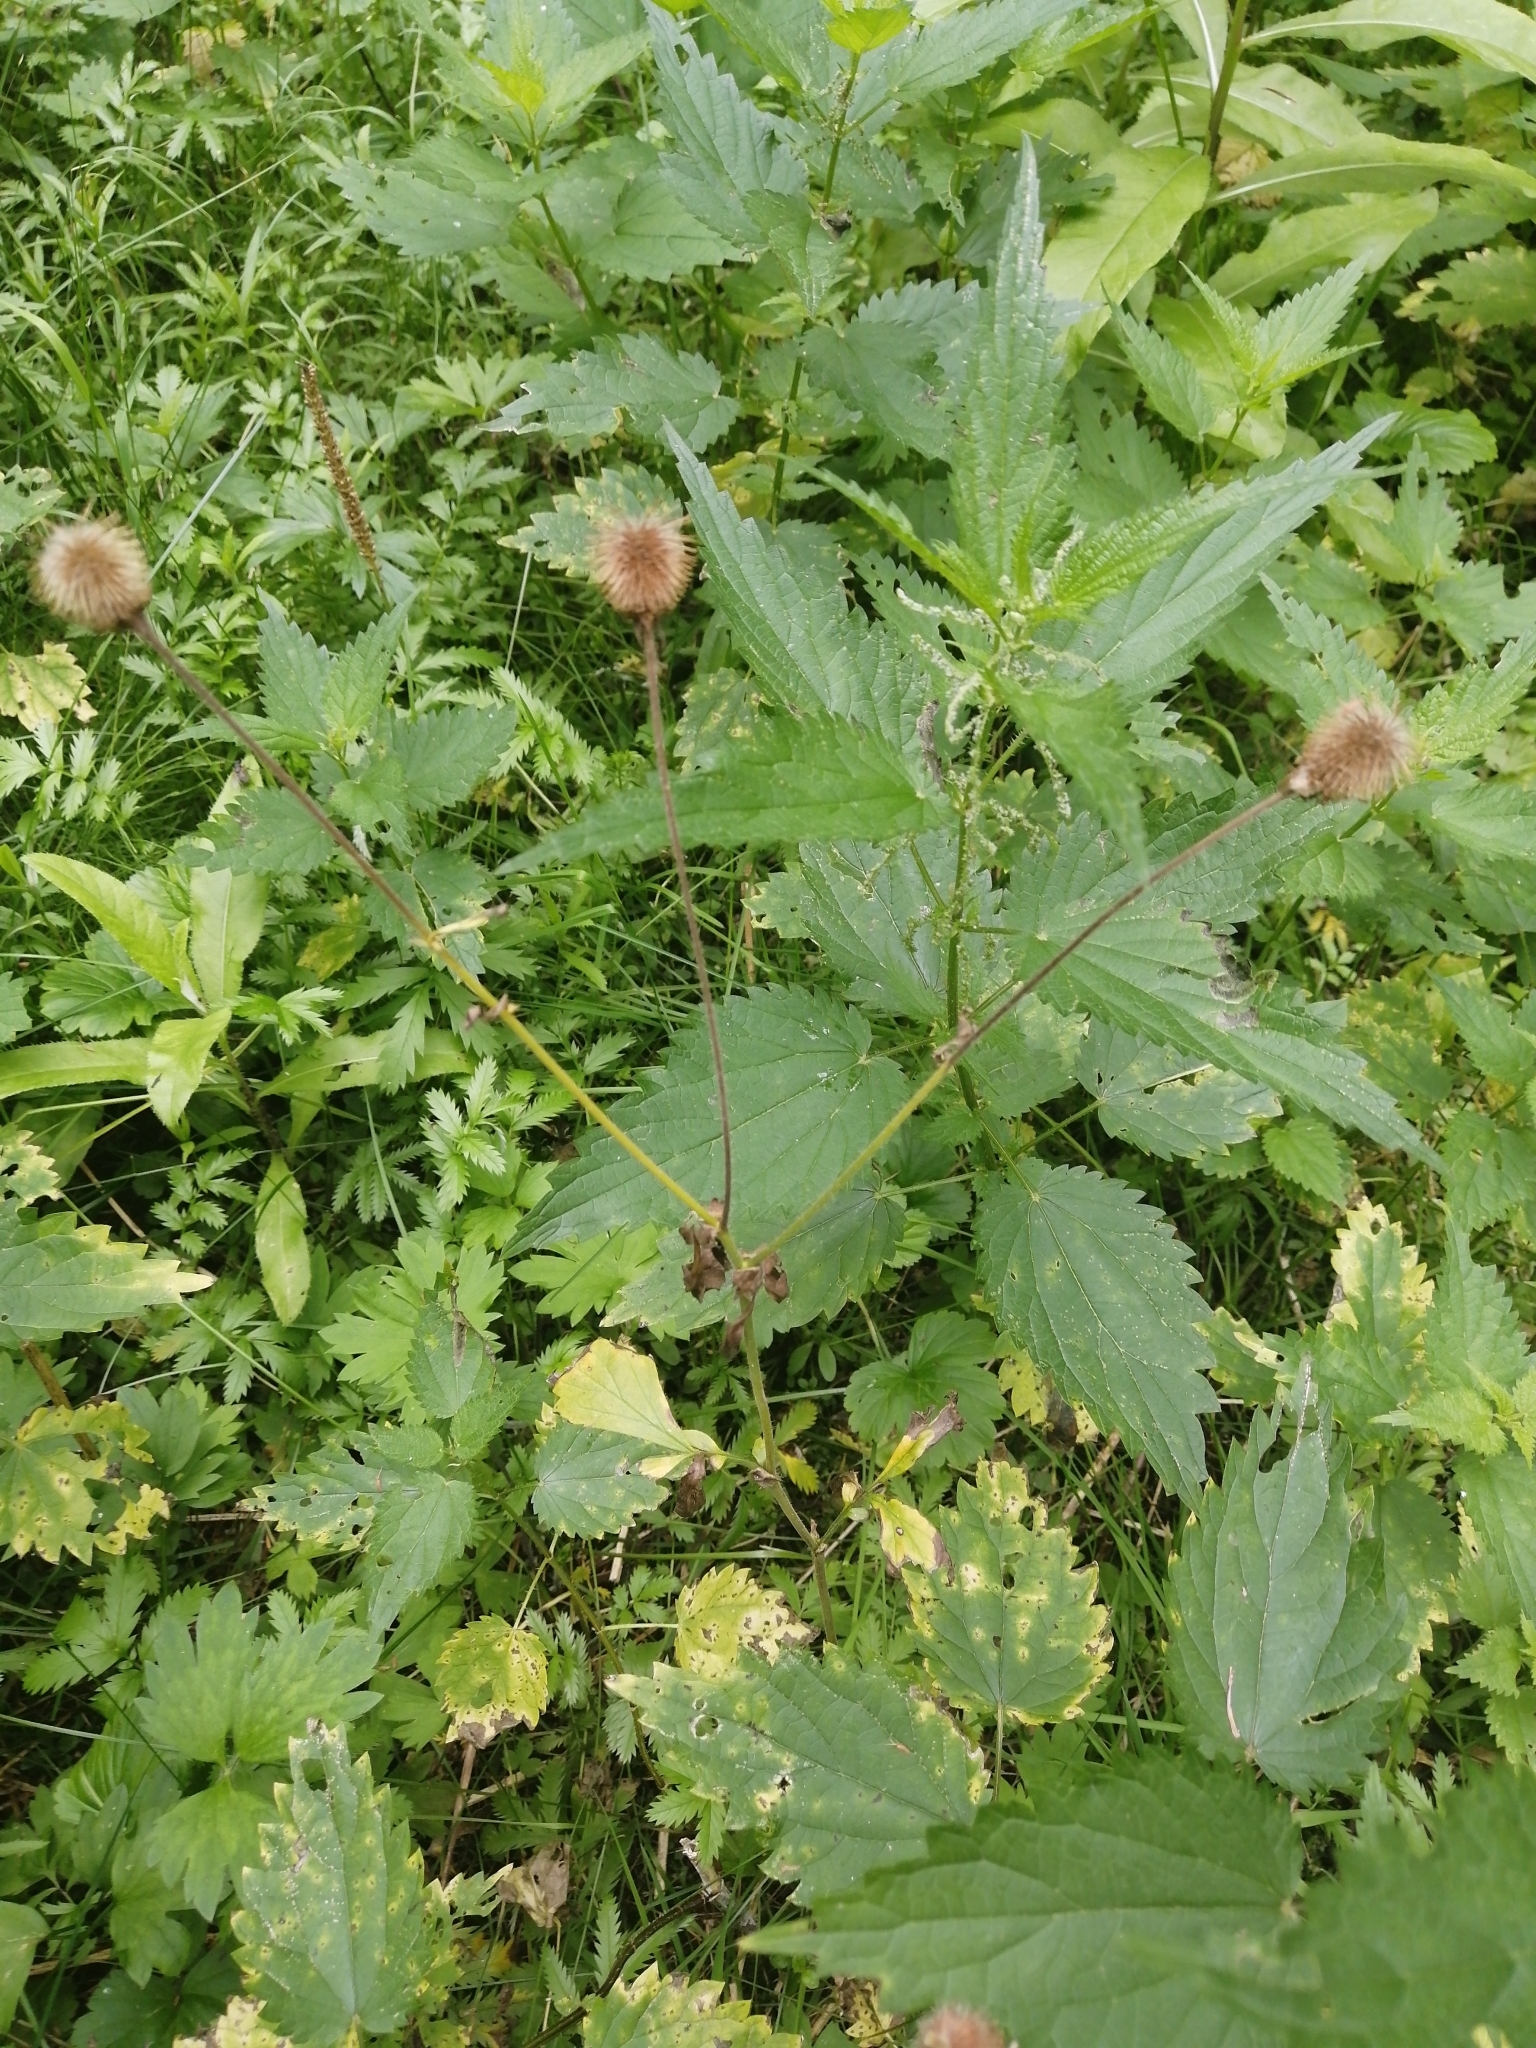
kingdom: Plantae
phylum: Tracheophyta
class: Magnoliopsida
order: Rosales
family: Rosaceae
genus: Geum
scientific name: Geum aleppicum
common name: Yellow avens
